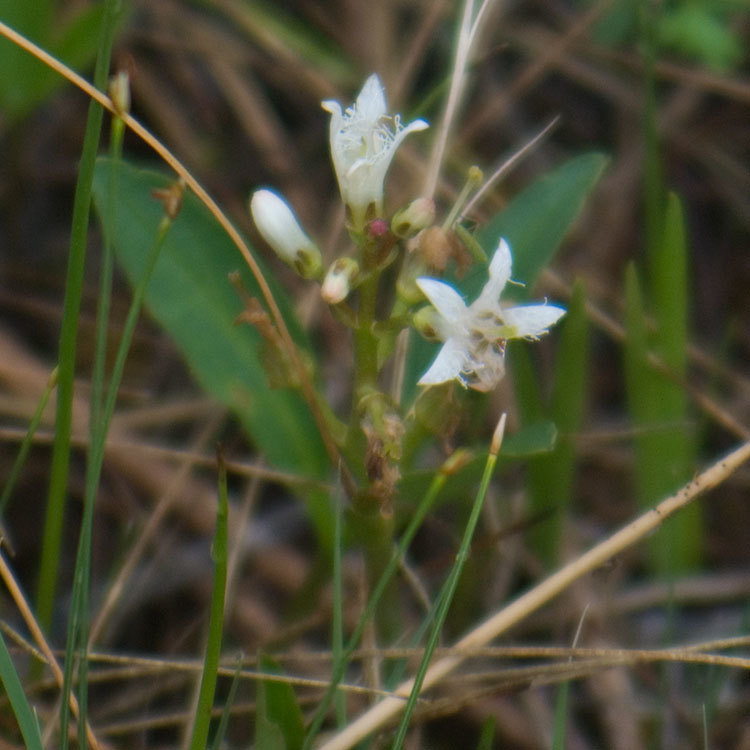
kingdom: Plantae
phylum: Tracheophyta
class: Magnoliopsida
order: Asterales
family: Menyanthaceae
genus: Menyanthes
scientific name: Menyanthes trifoliata
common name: Bogbean
